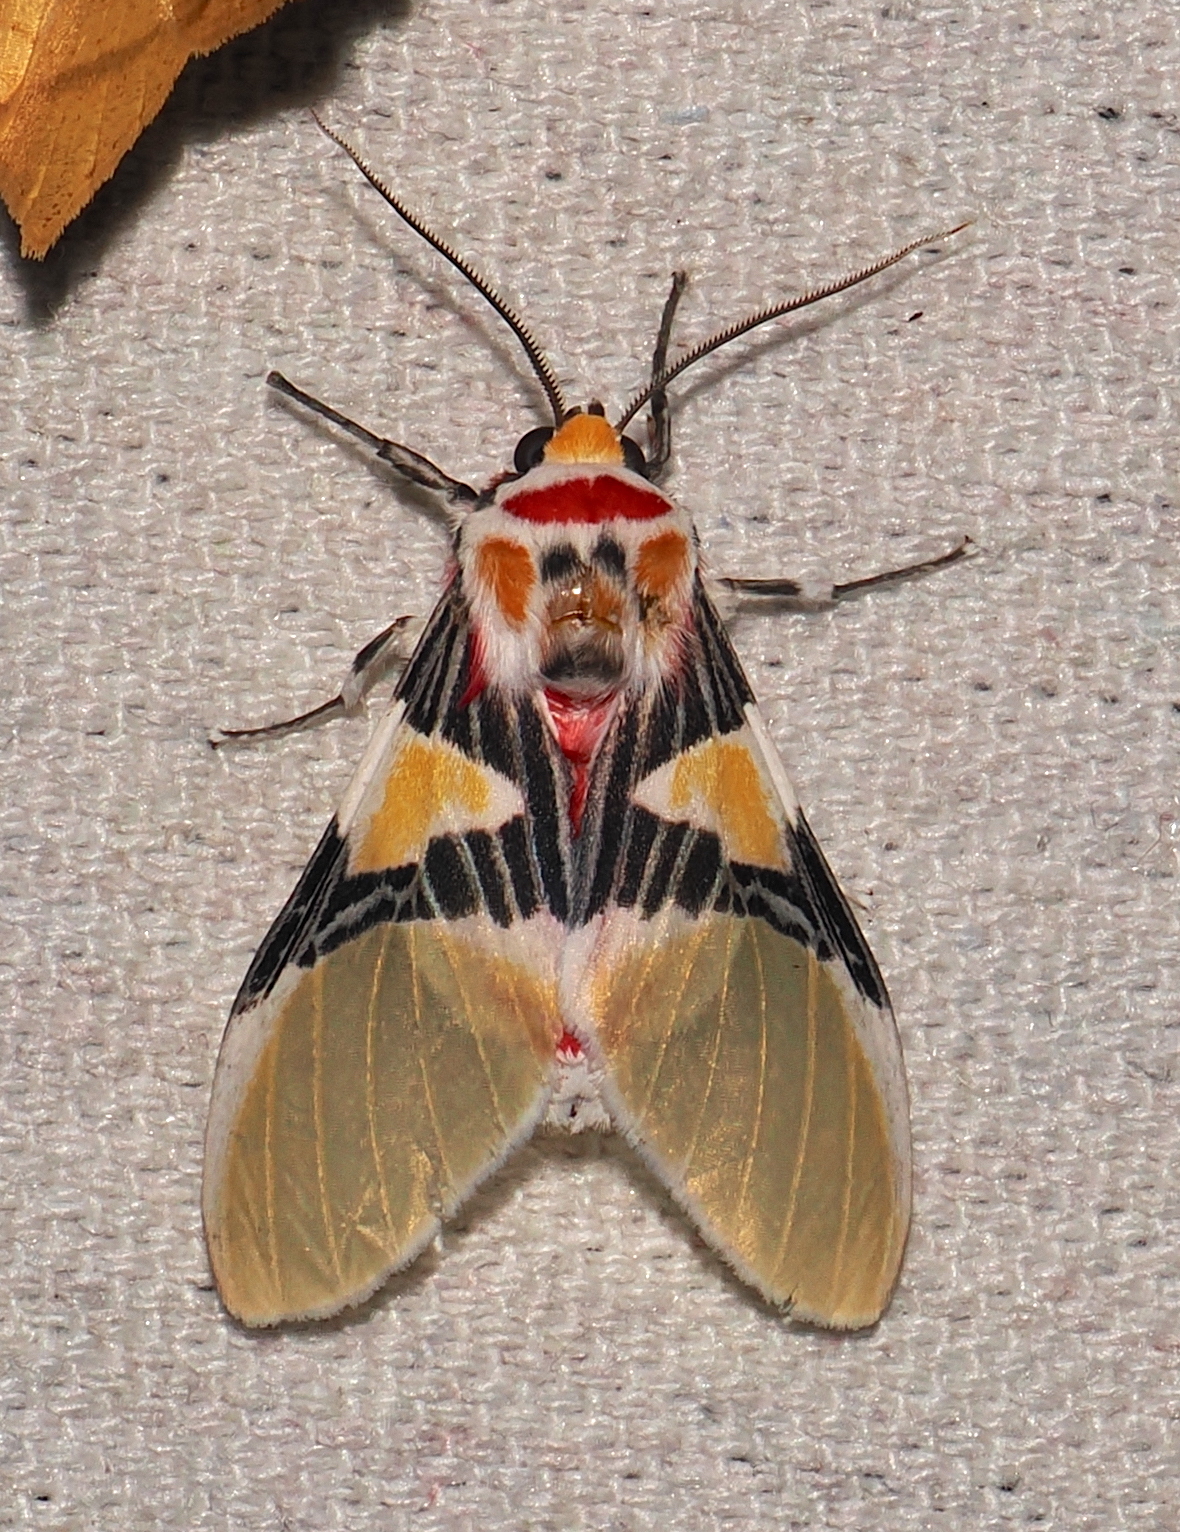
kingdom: Animalia
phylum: Arthropoda
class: Insecta
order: Lepidoptera
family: Erebidae
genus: Idalus
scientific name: Idalus herois
